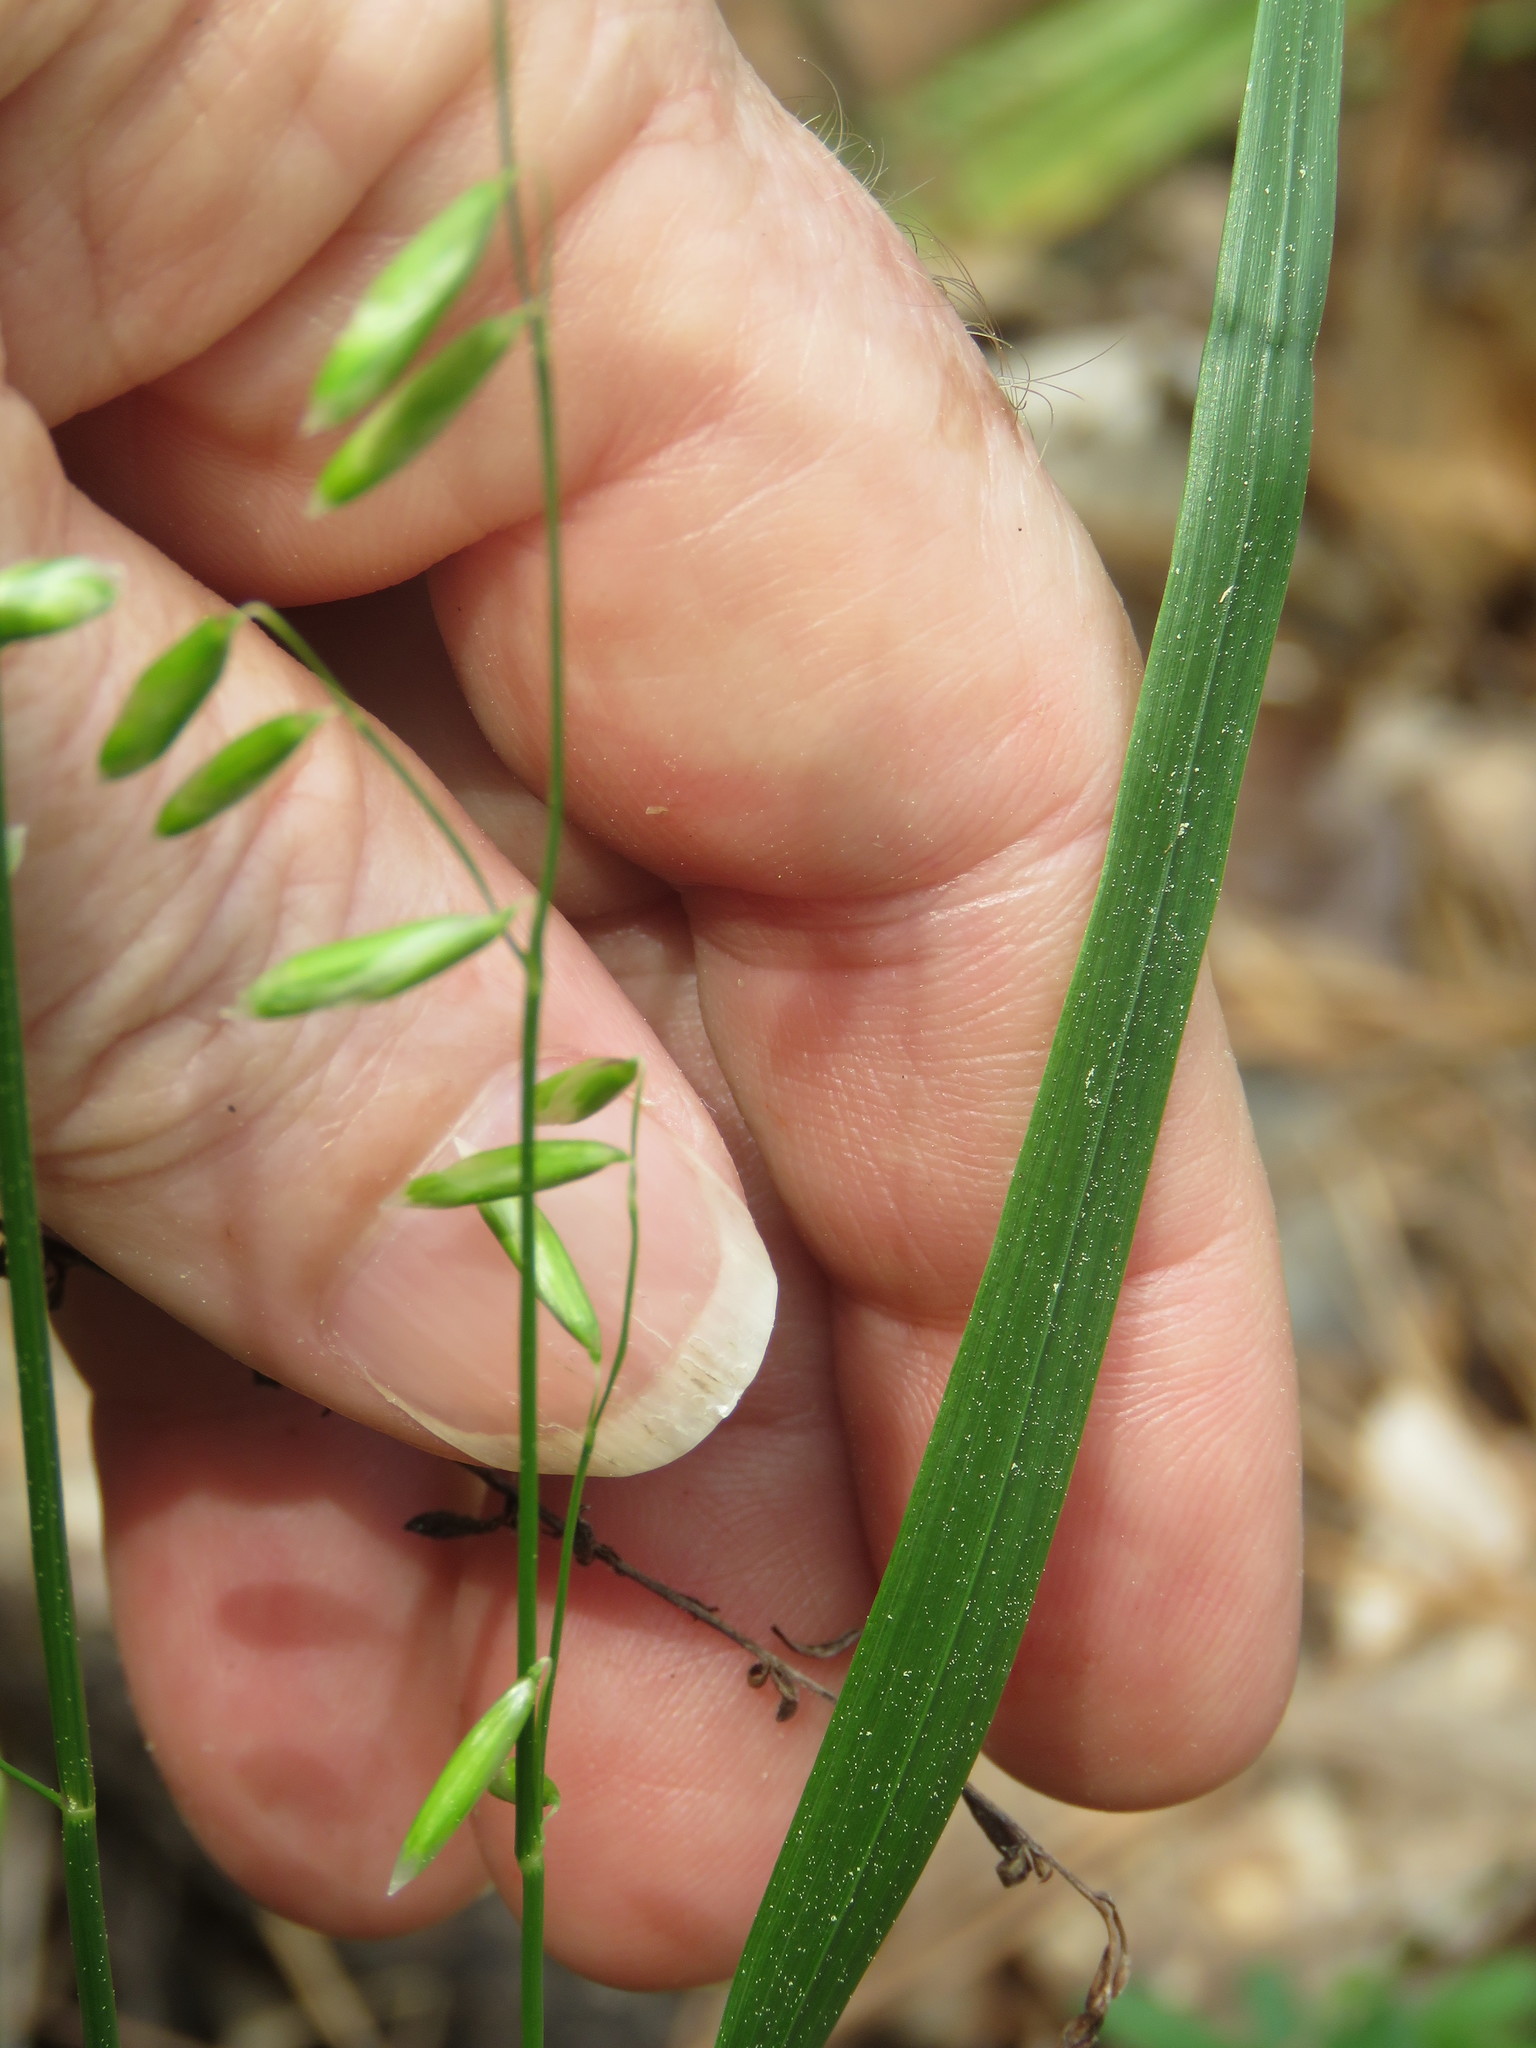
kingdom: Plantae
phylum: Tracheophyta
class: Liliopsida
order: Poales
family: Poaceae
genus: Melica
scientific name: Melica mutica
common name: Two-flower melic
